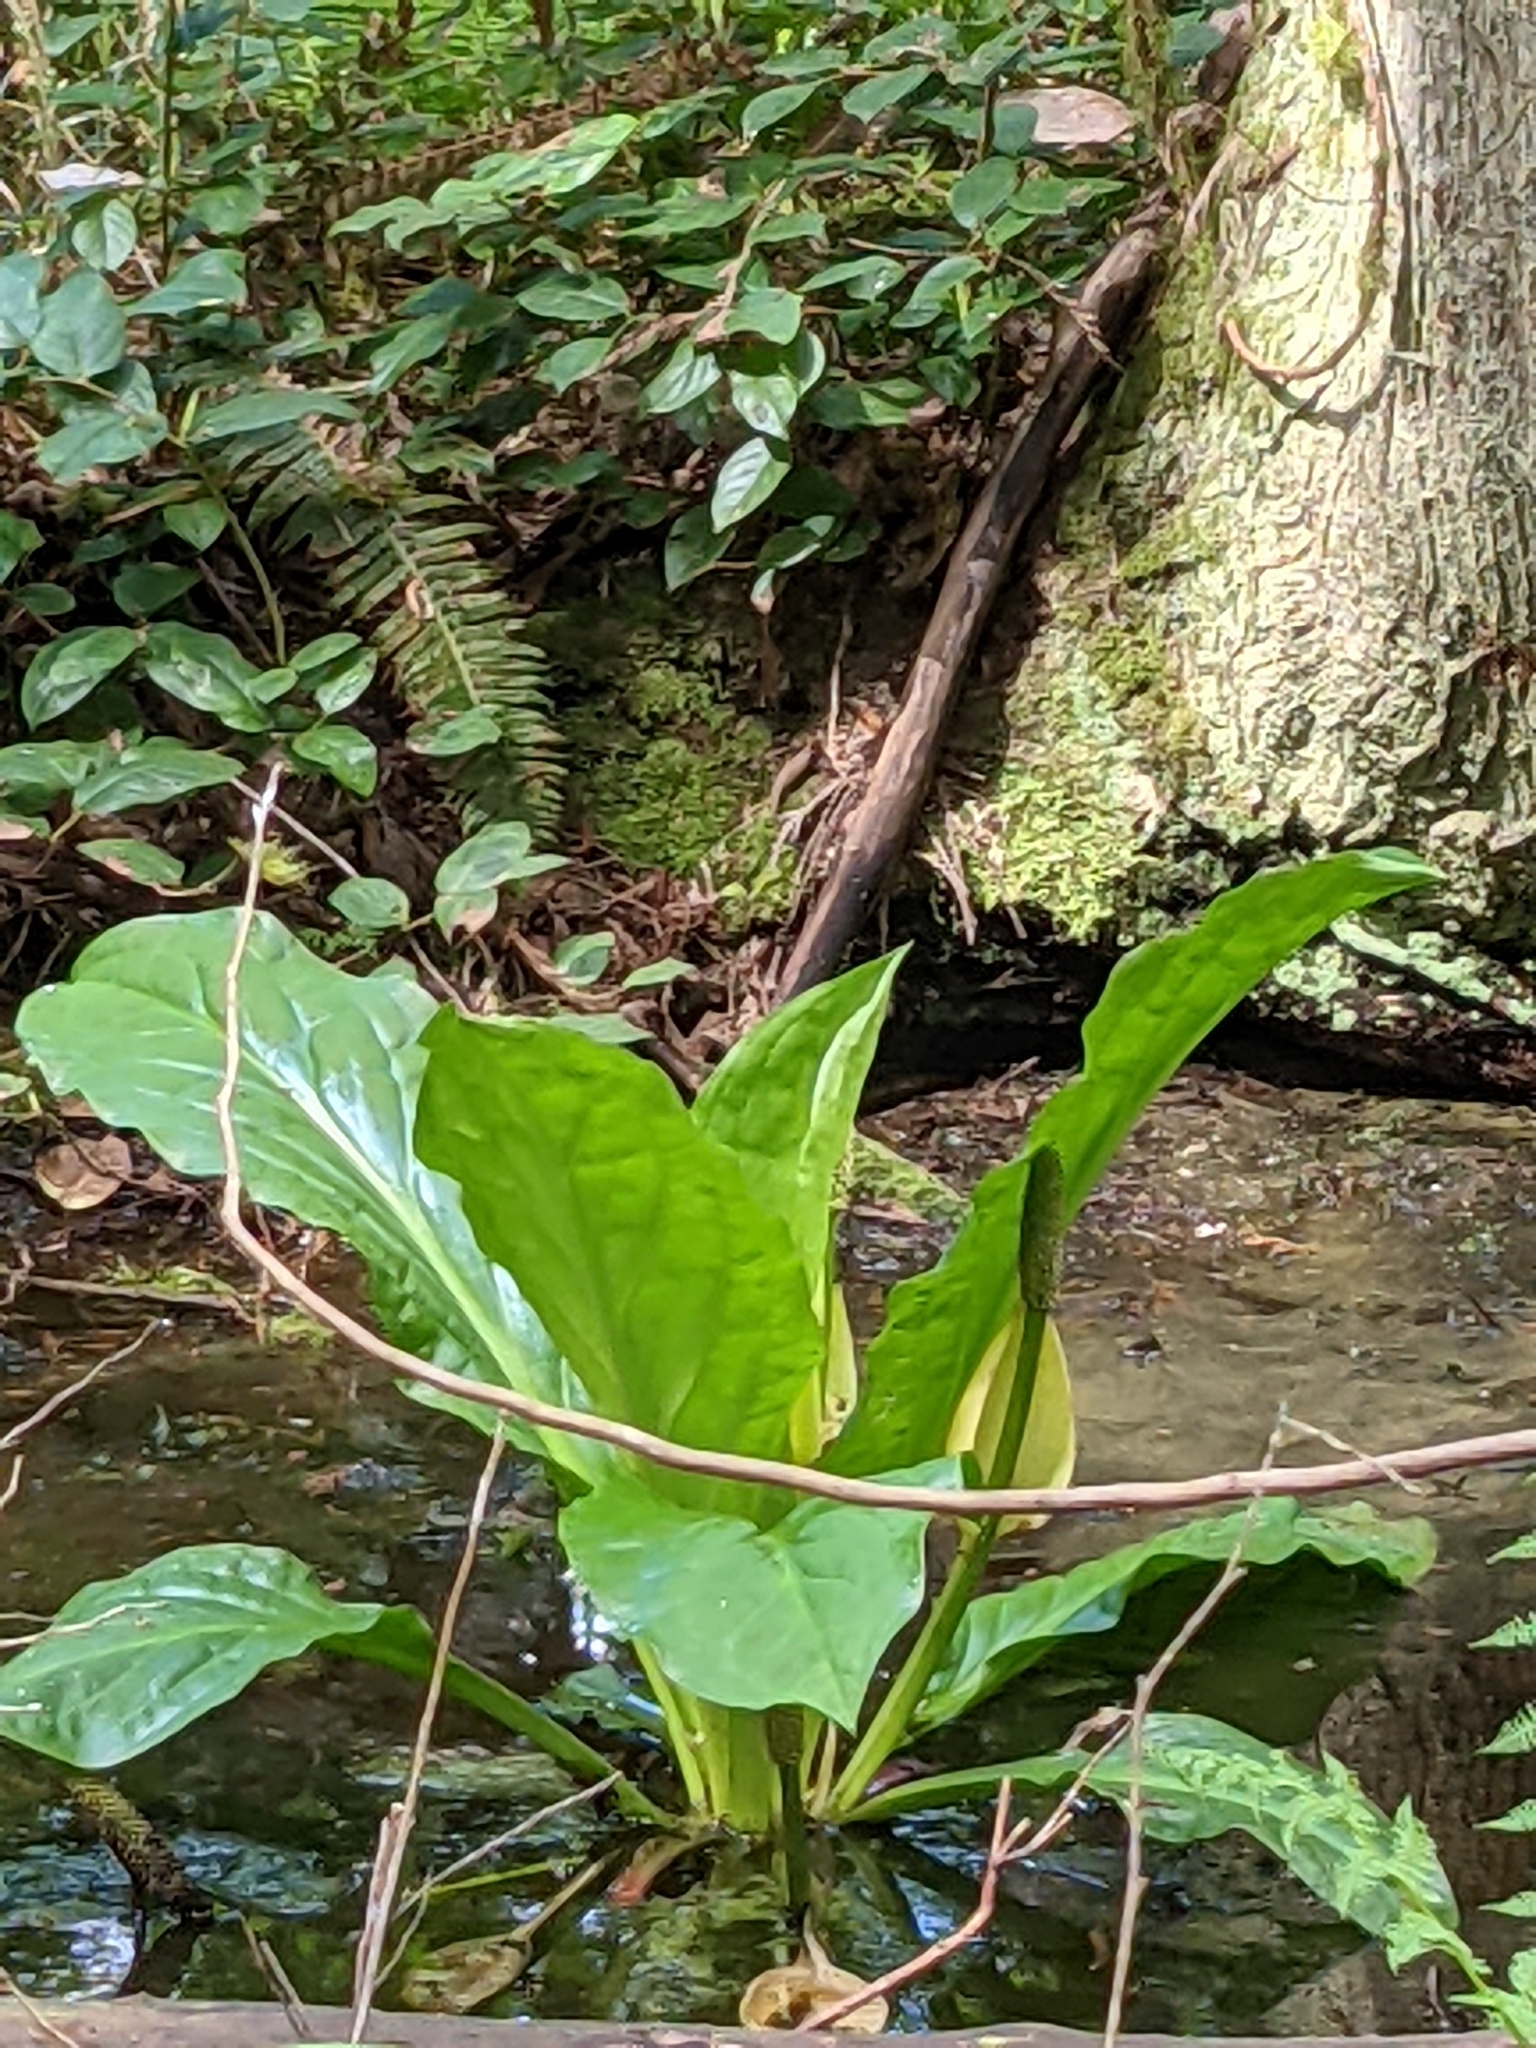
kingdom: Plantae
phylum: Tracheophyta
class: Liliopsida
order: Alismatales
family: Araceae
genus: Lysichiton
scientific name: Lysichiton americanus
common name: American skunk cabbage
